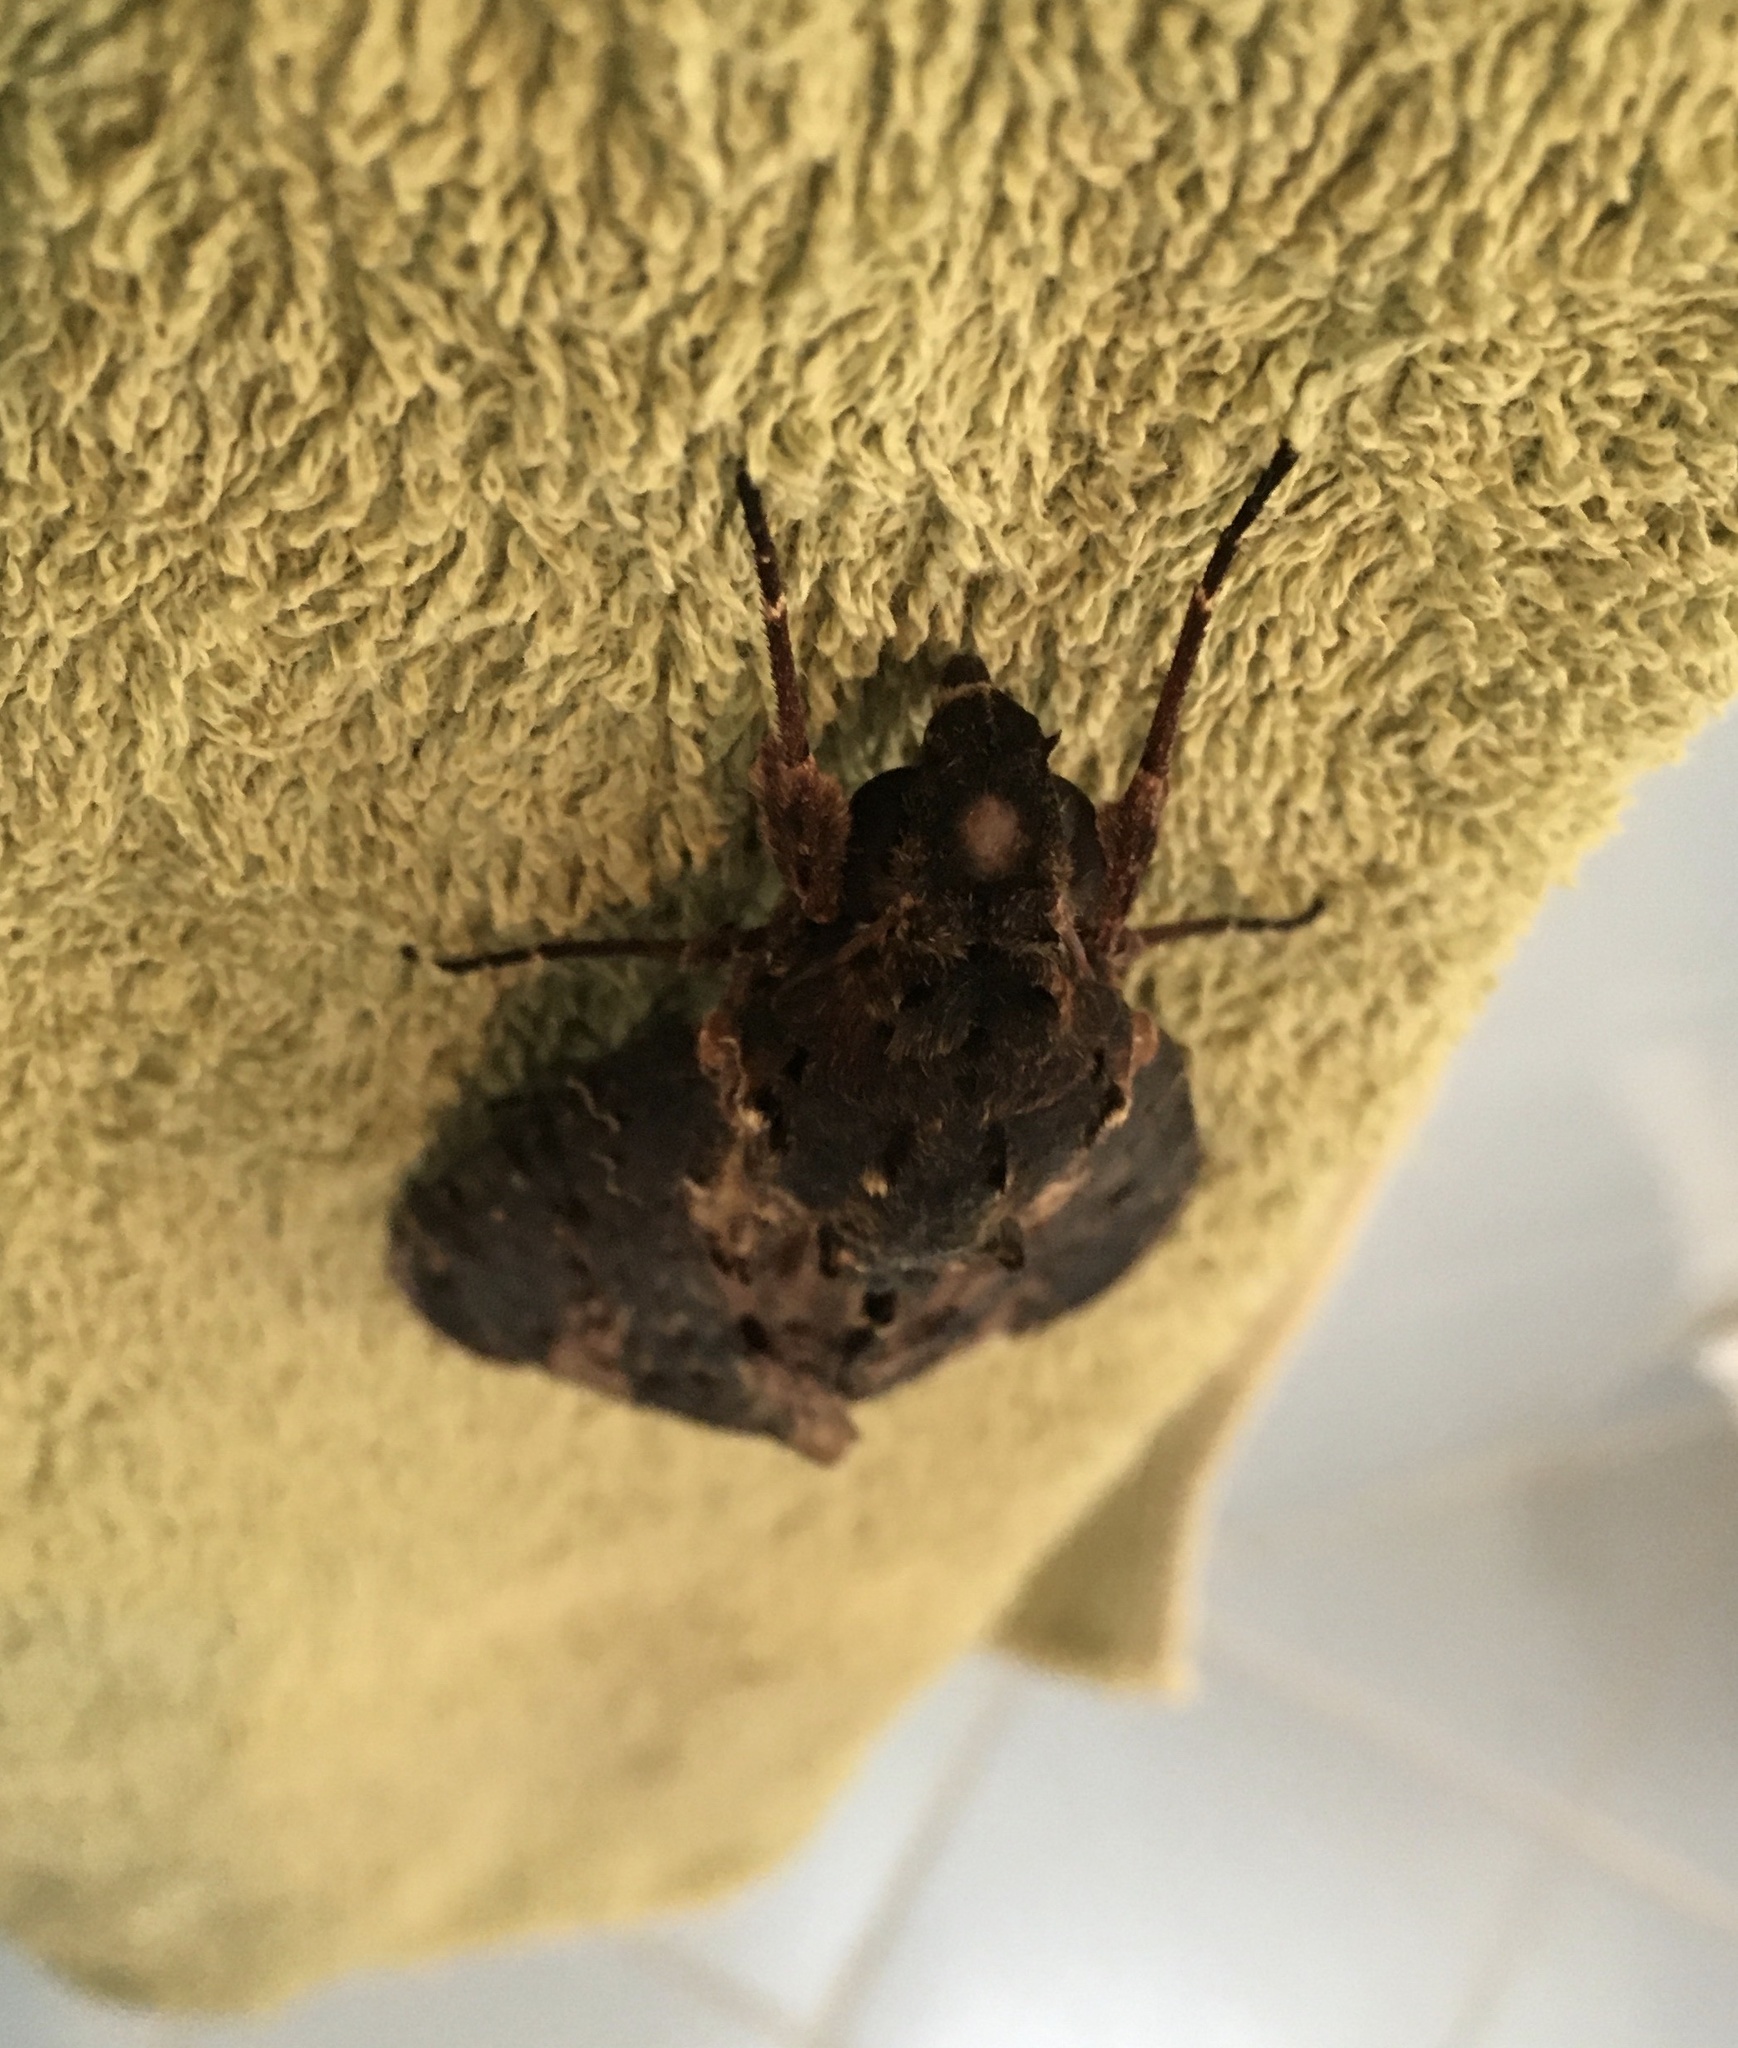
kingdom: Animalia
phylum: Arthropoda
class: Insecta
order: Lepidoptera
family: Sphingidae
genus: Neococytius
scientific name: Neococytius cluentius
